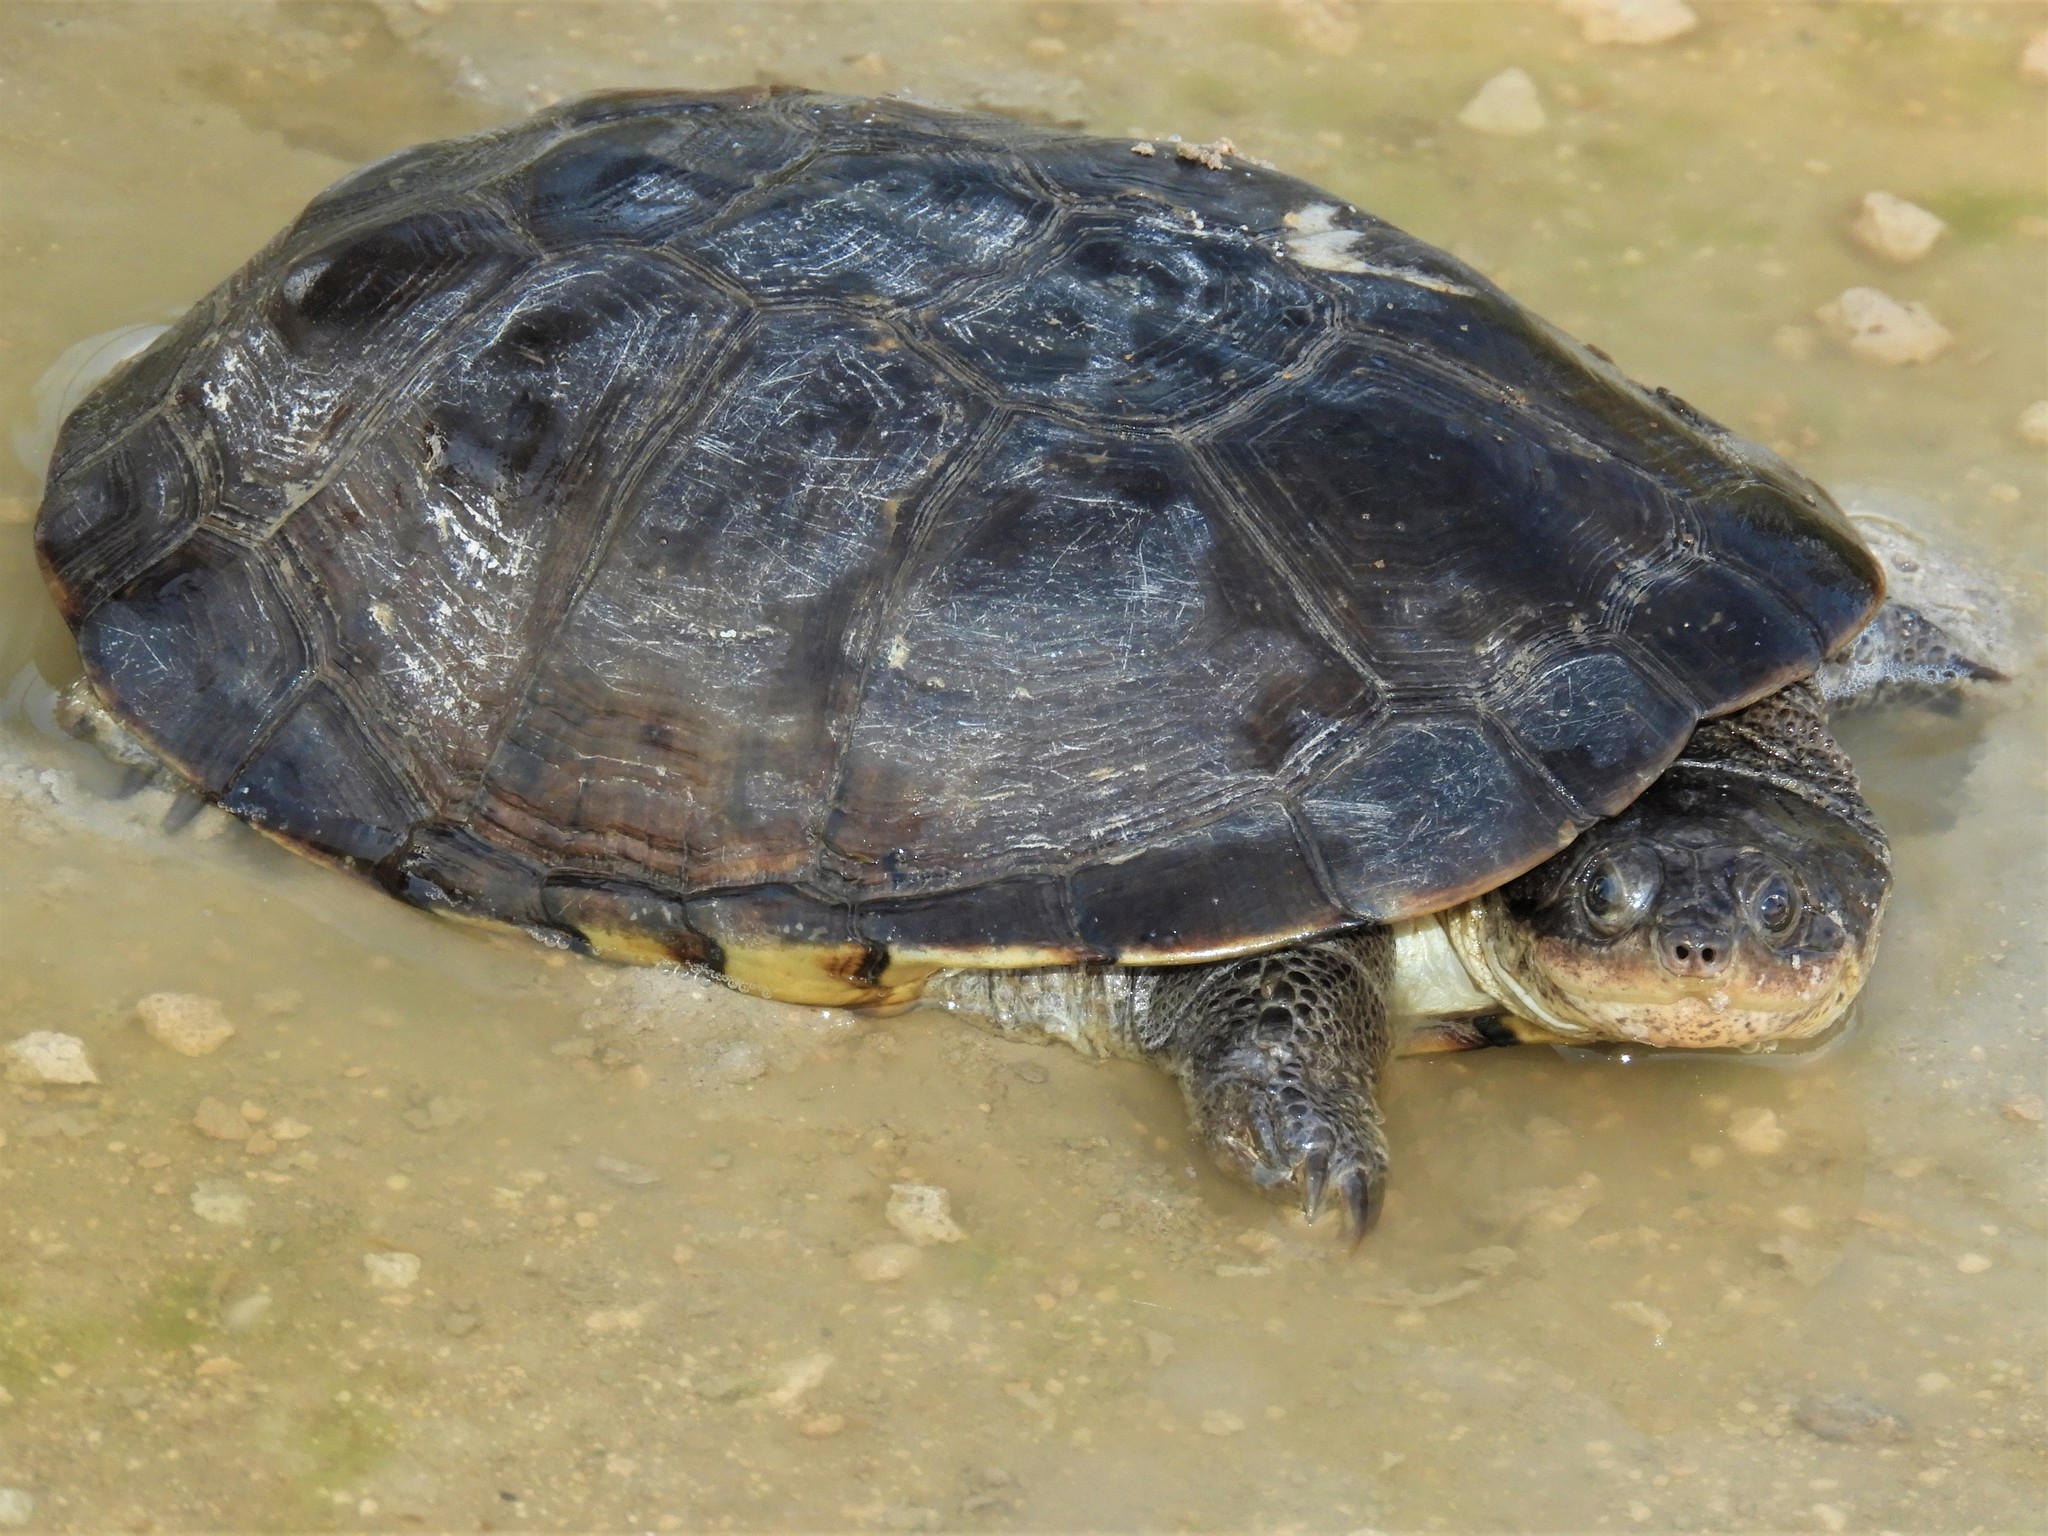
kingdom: Animalia
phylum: Chordata
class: Testudines
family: Pelomedusidae
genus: Pelomedusa
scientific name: Pelomedusa subrufa
